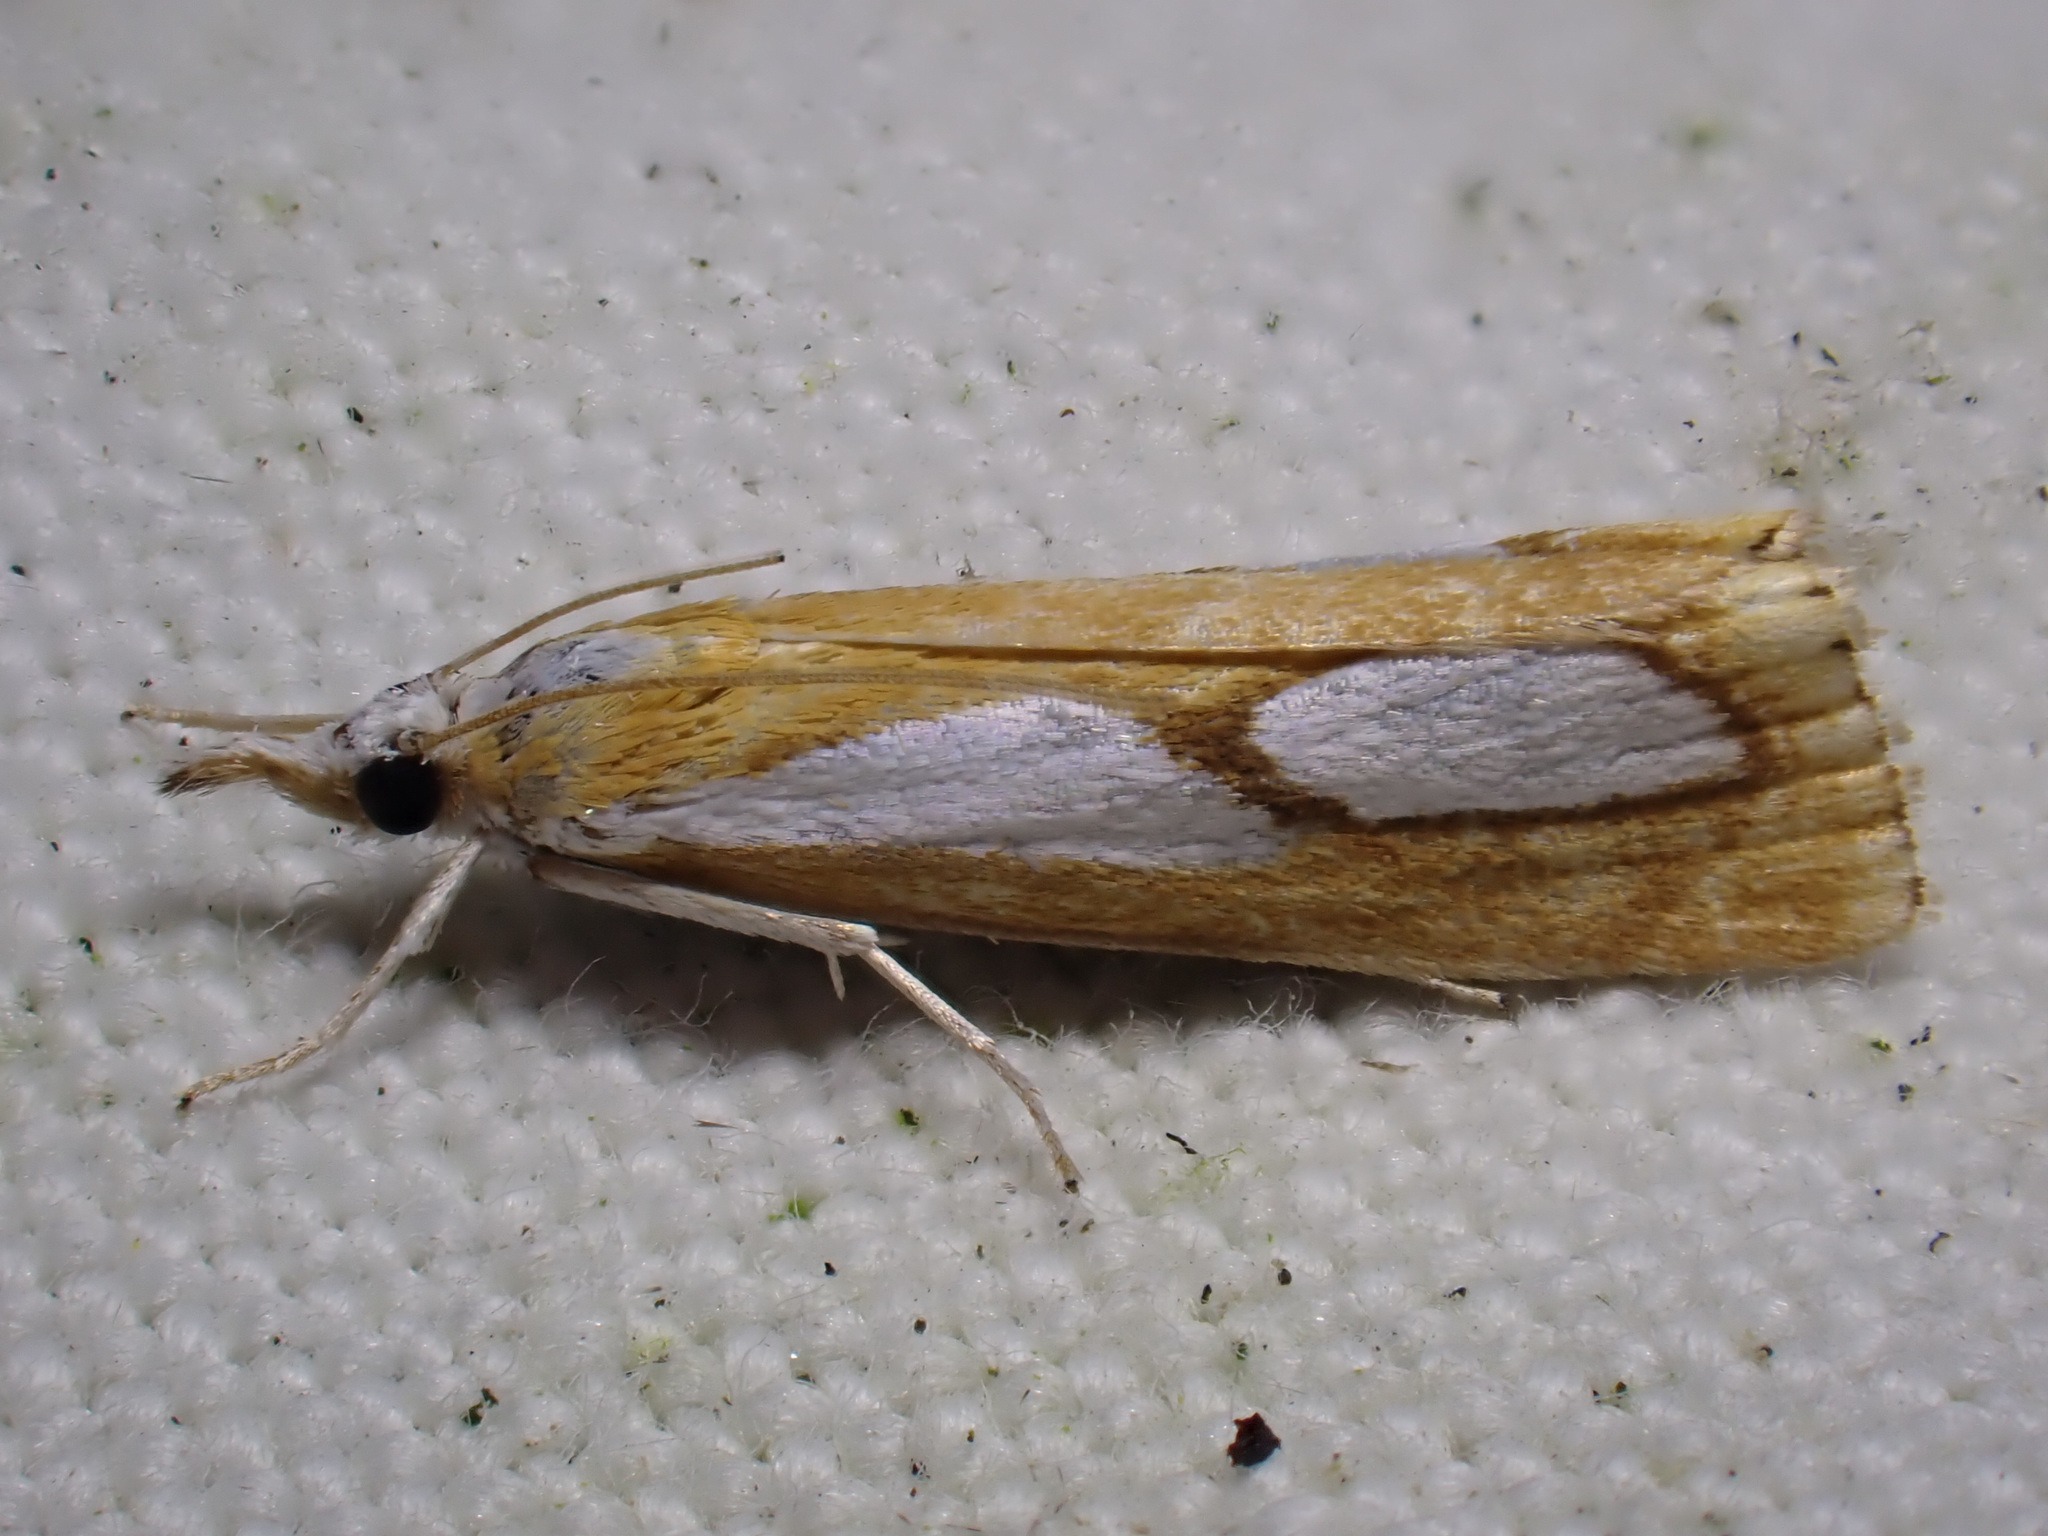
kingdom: Animalia
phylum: Arthropoda
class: Insecta
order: Lepidoptera
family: Crambidae
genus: Catoptria
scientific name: Catoptria pinella
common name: Pearl grass-veneer
